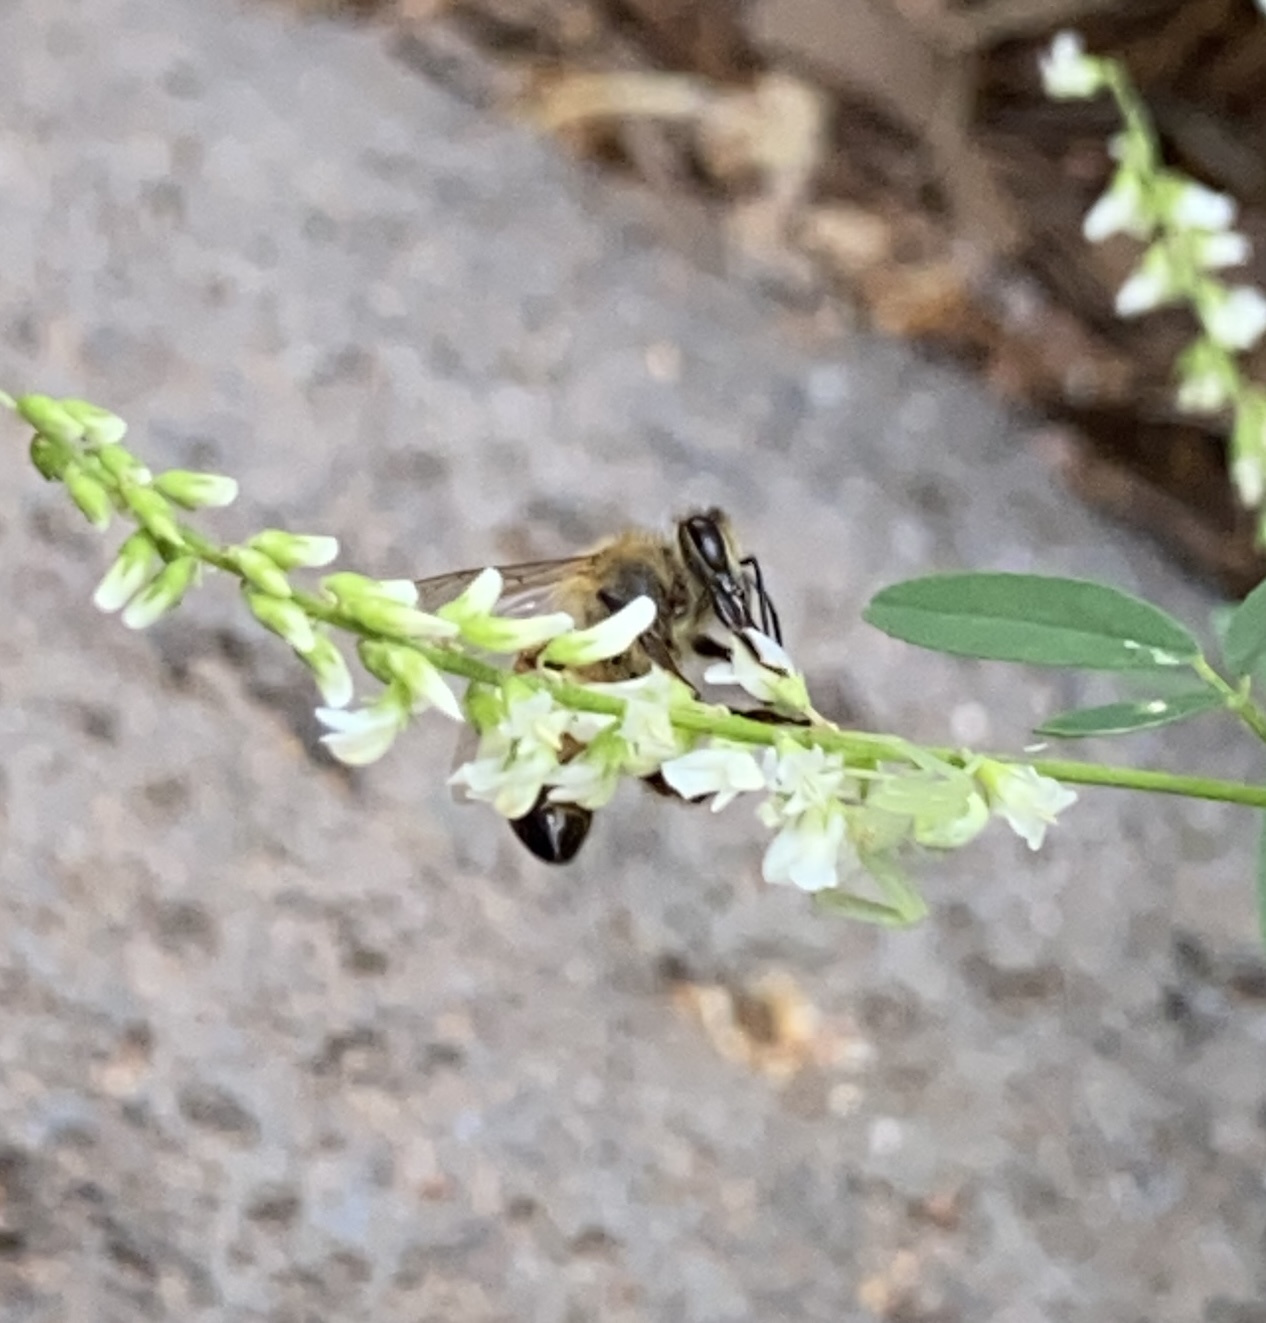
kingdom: Animalia
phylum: Arthropoda
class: Insecta
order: Hymenoptera
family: Apidae
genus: Apis
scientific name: Apis mellifera
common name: Honey bee
